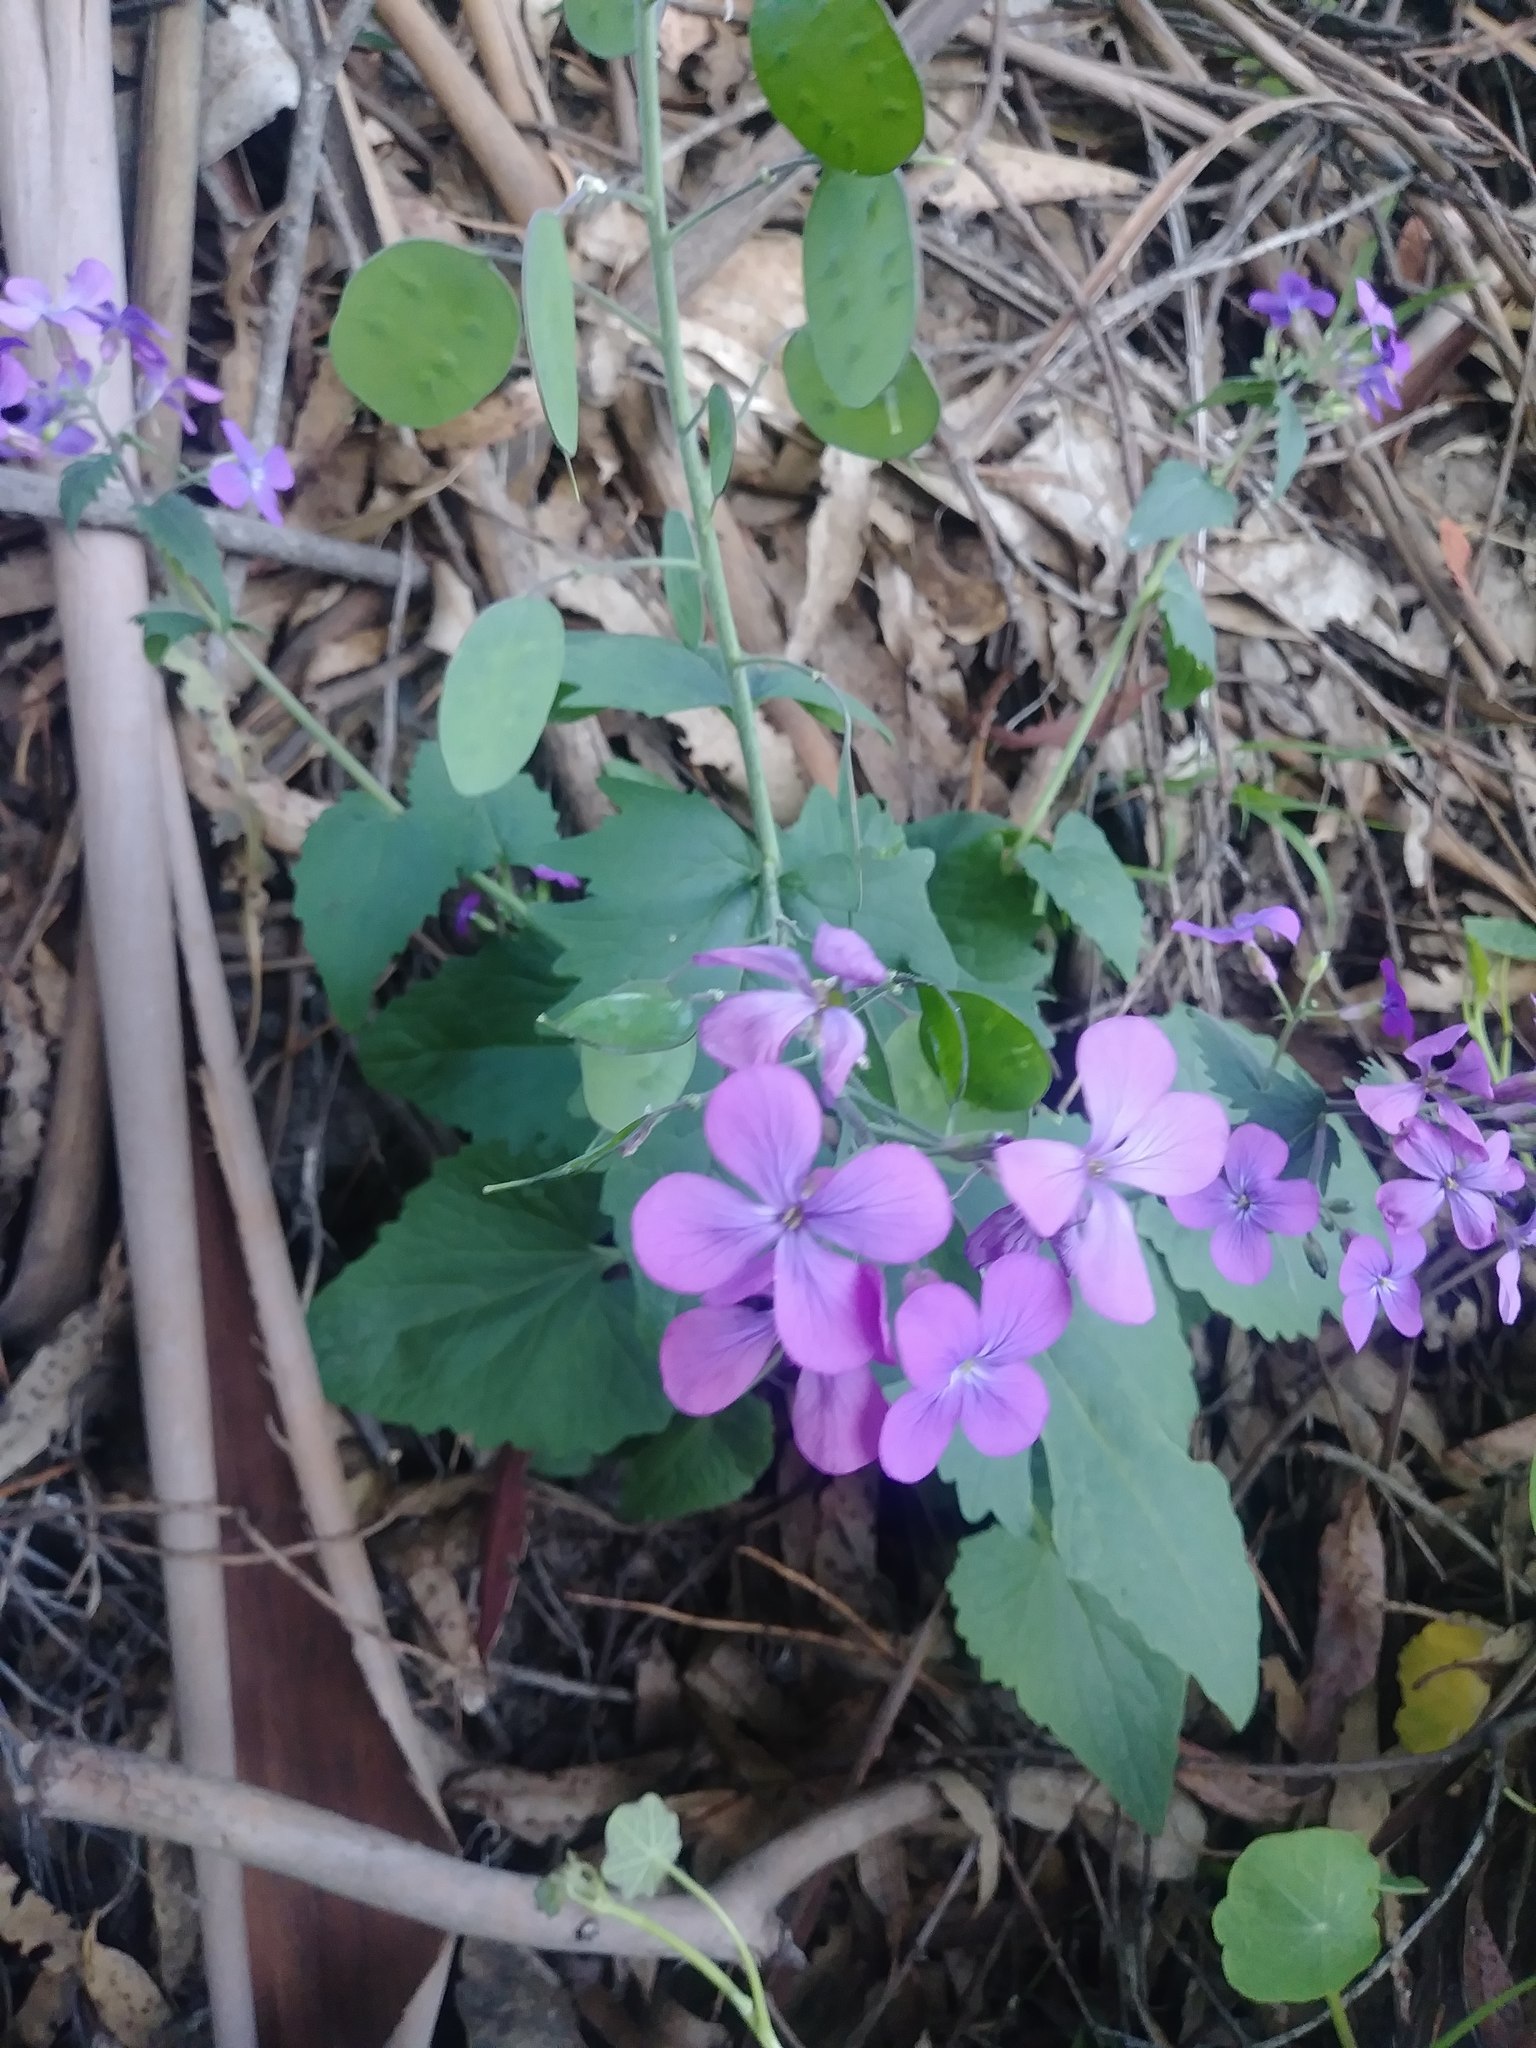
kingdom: Plantae
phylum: Tracheophyta
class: Magnoliopsida
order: Brassicales
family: Brassicaceae
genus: Lunaria
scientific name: Lunaria annua
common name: Honesty
